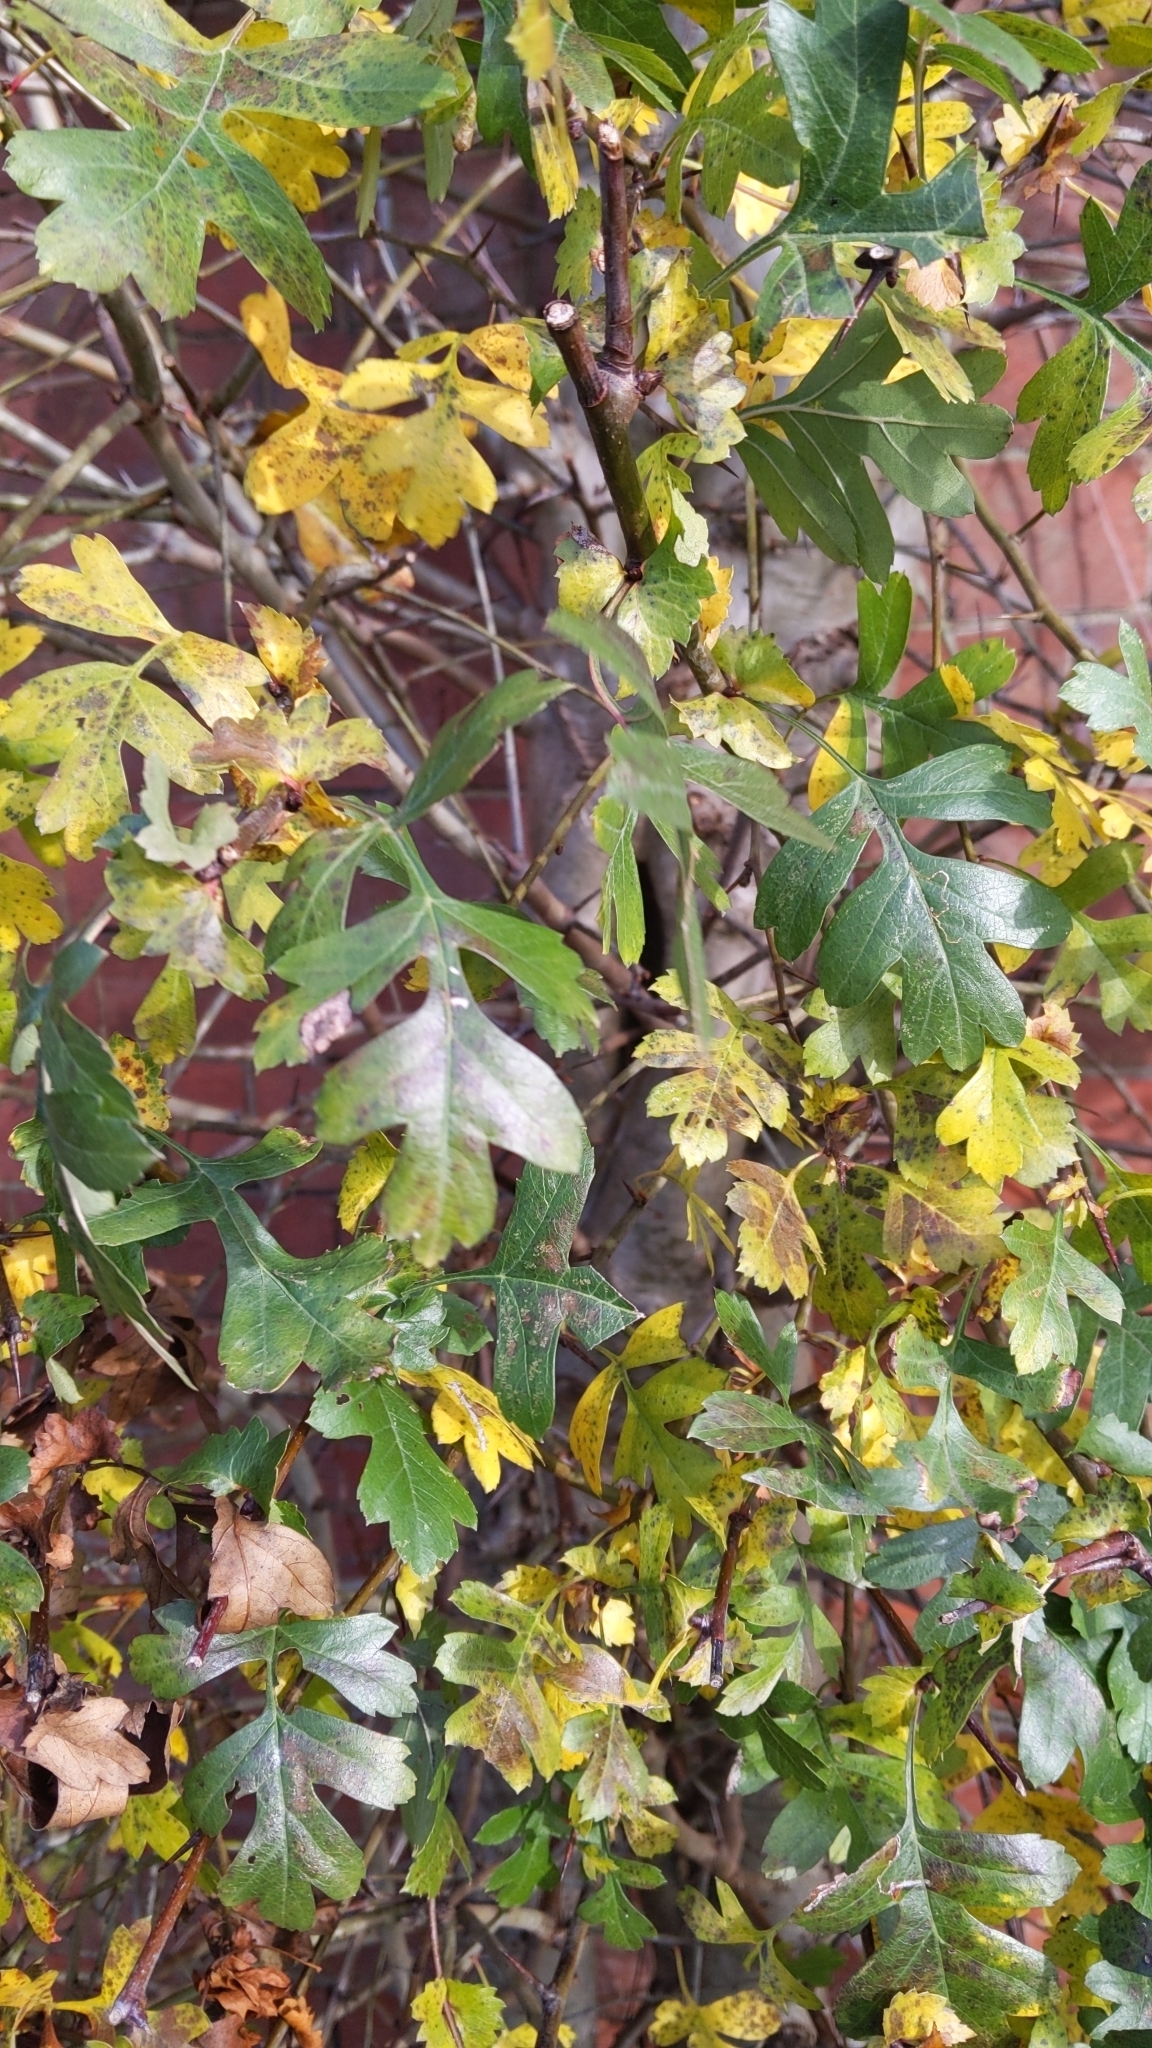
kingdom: Plantae
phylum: Tracheophyta
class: Magnoliopsida
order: Rosales
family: Rosaceae
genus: Crataegus
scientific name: Crataegus monogyna
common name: Hawthorn
